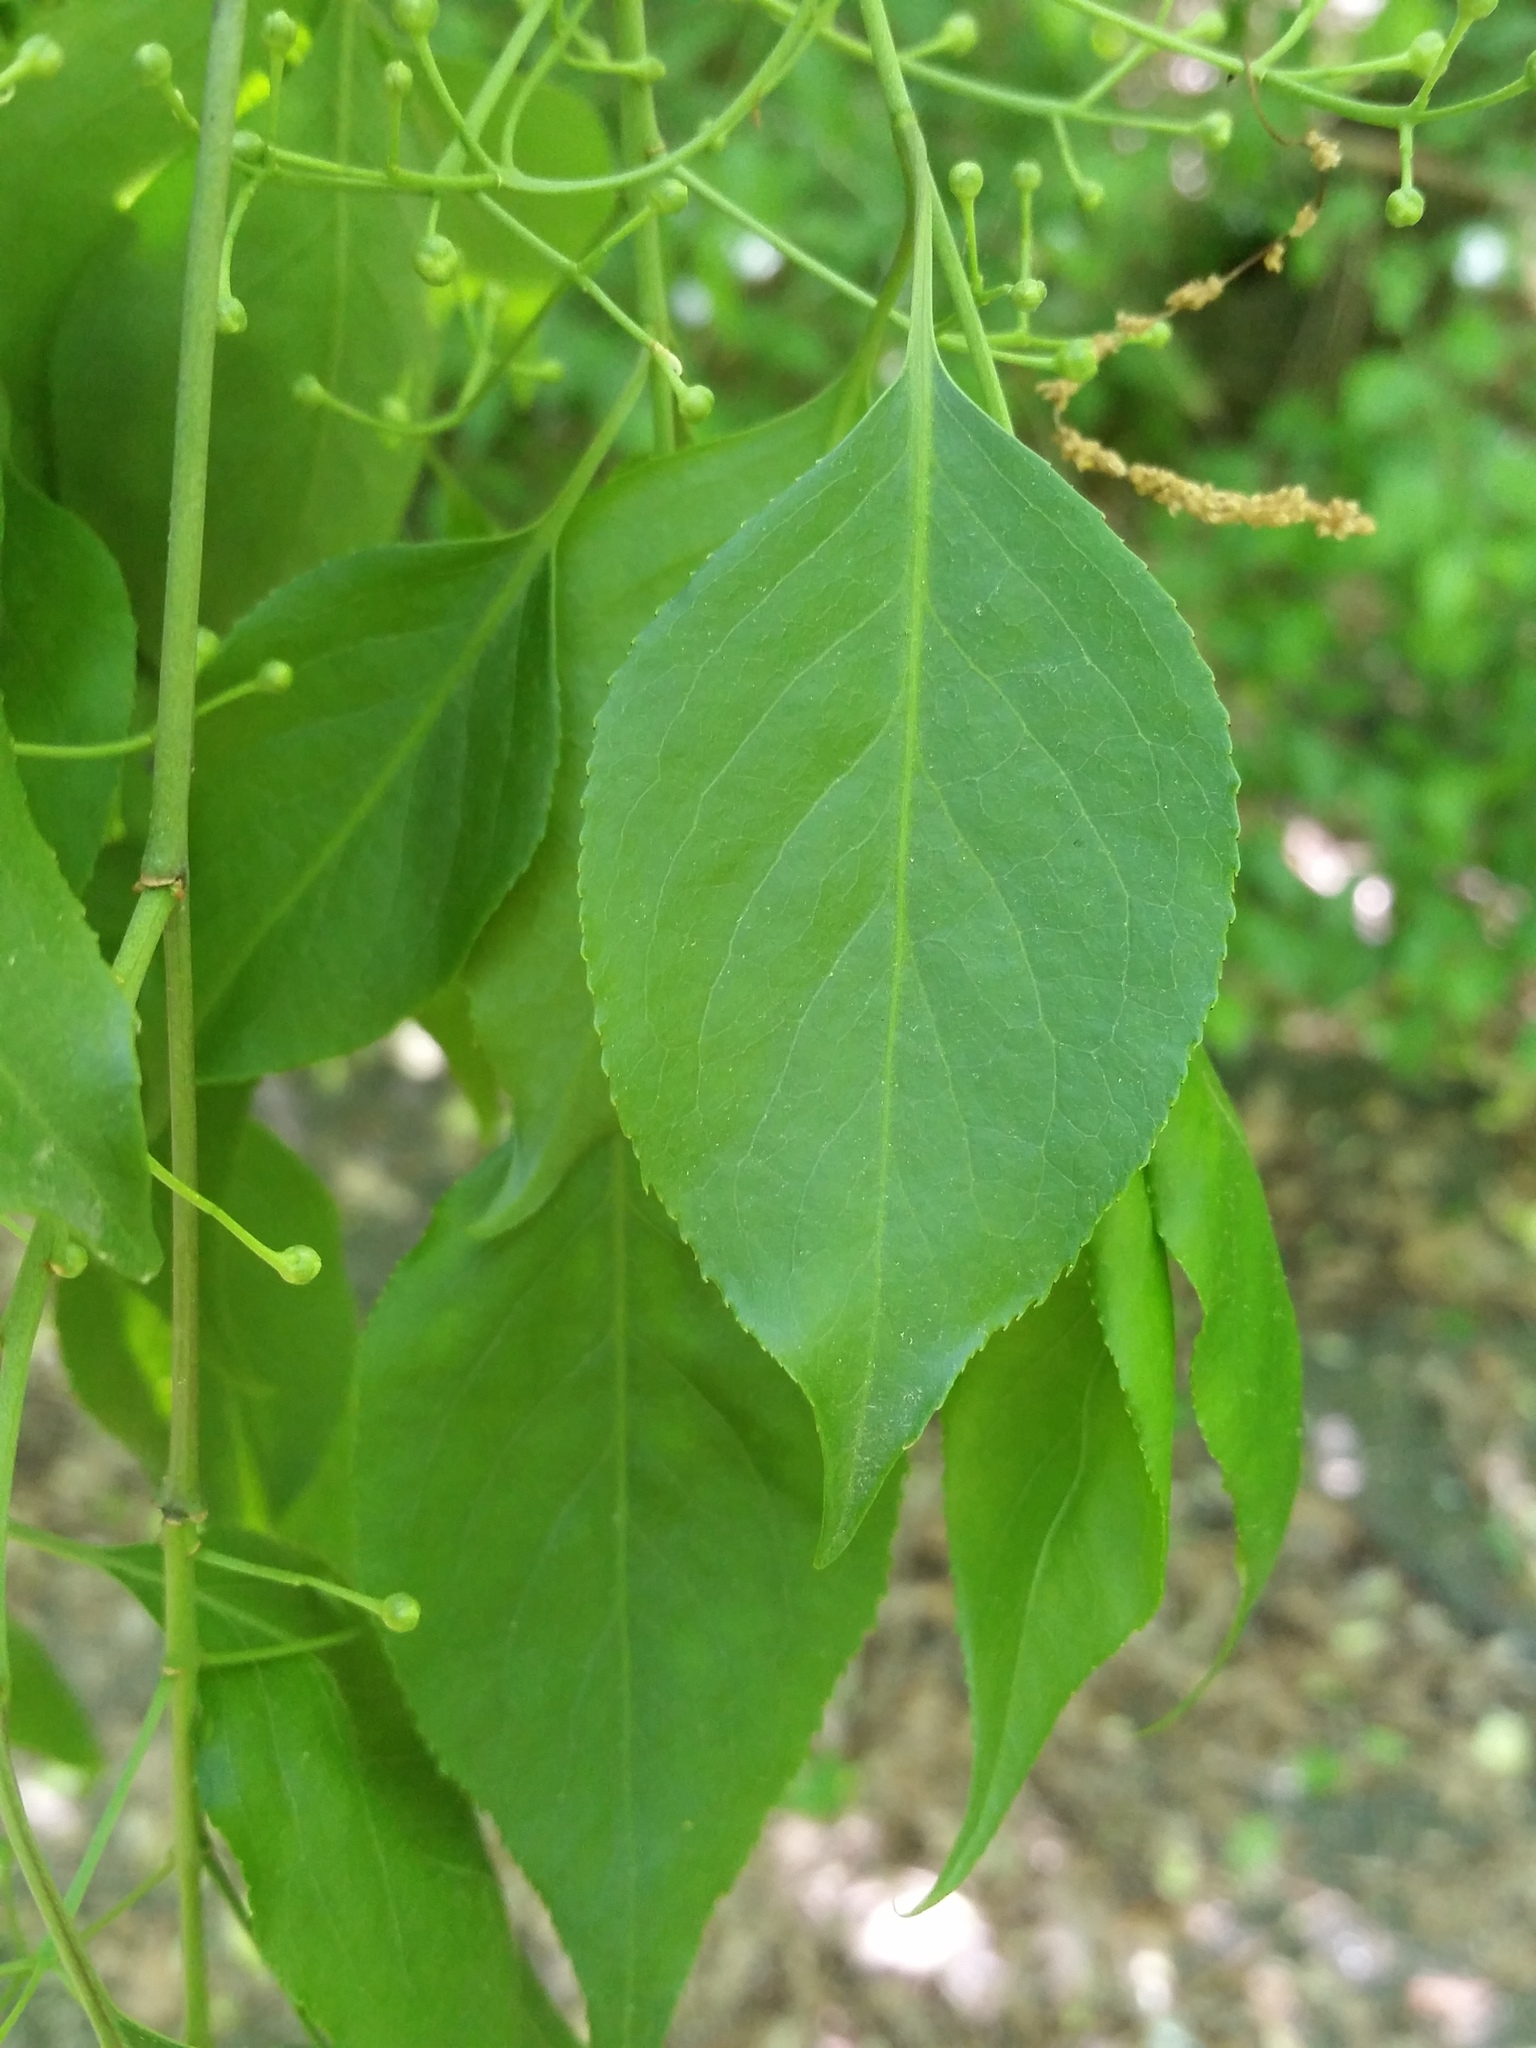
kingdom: Plantae
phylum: Tracheophyta
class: Magnoliopsida
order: Celastrales
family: Celastraceae
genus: Euonymus
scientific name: Euonymus hamiltonianus
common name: Hamilton's spindletree
